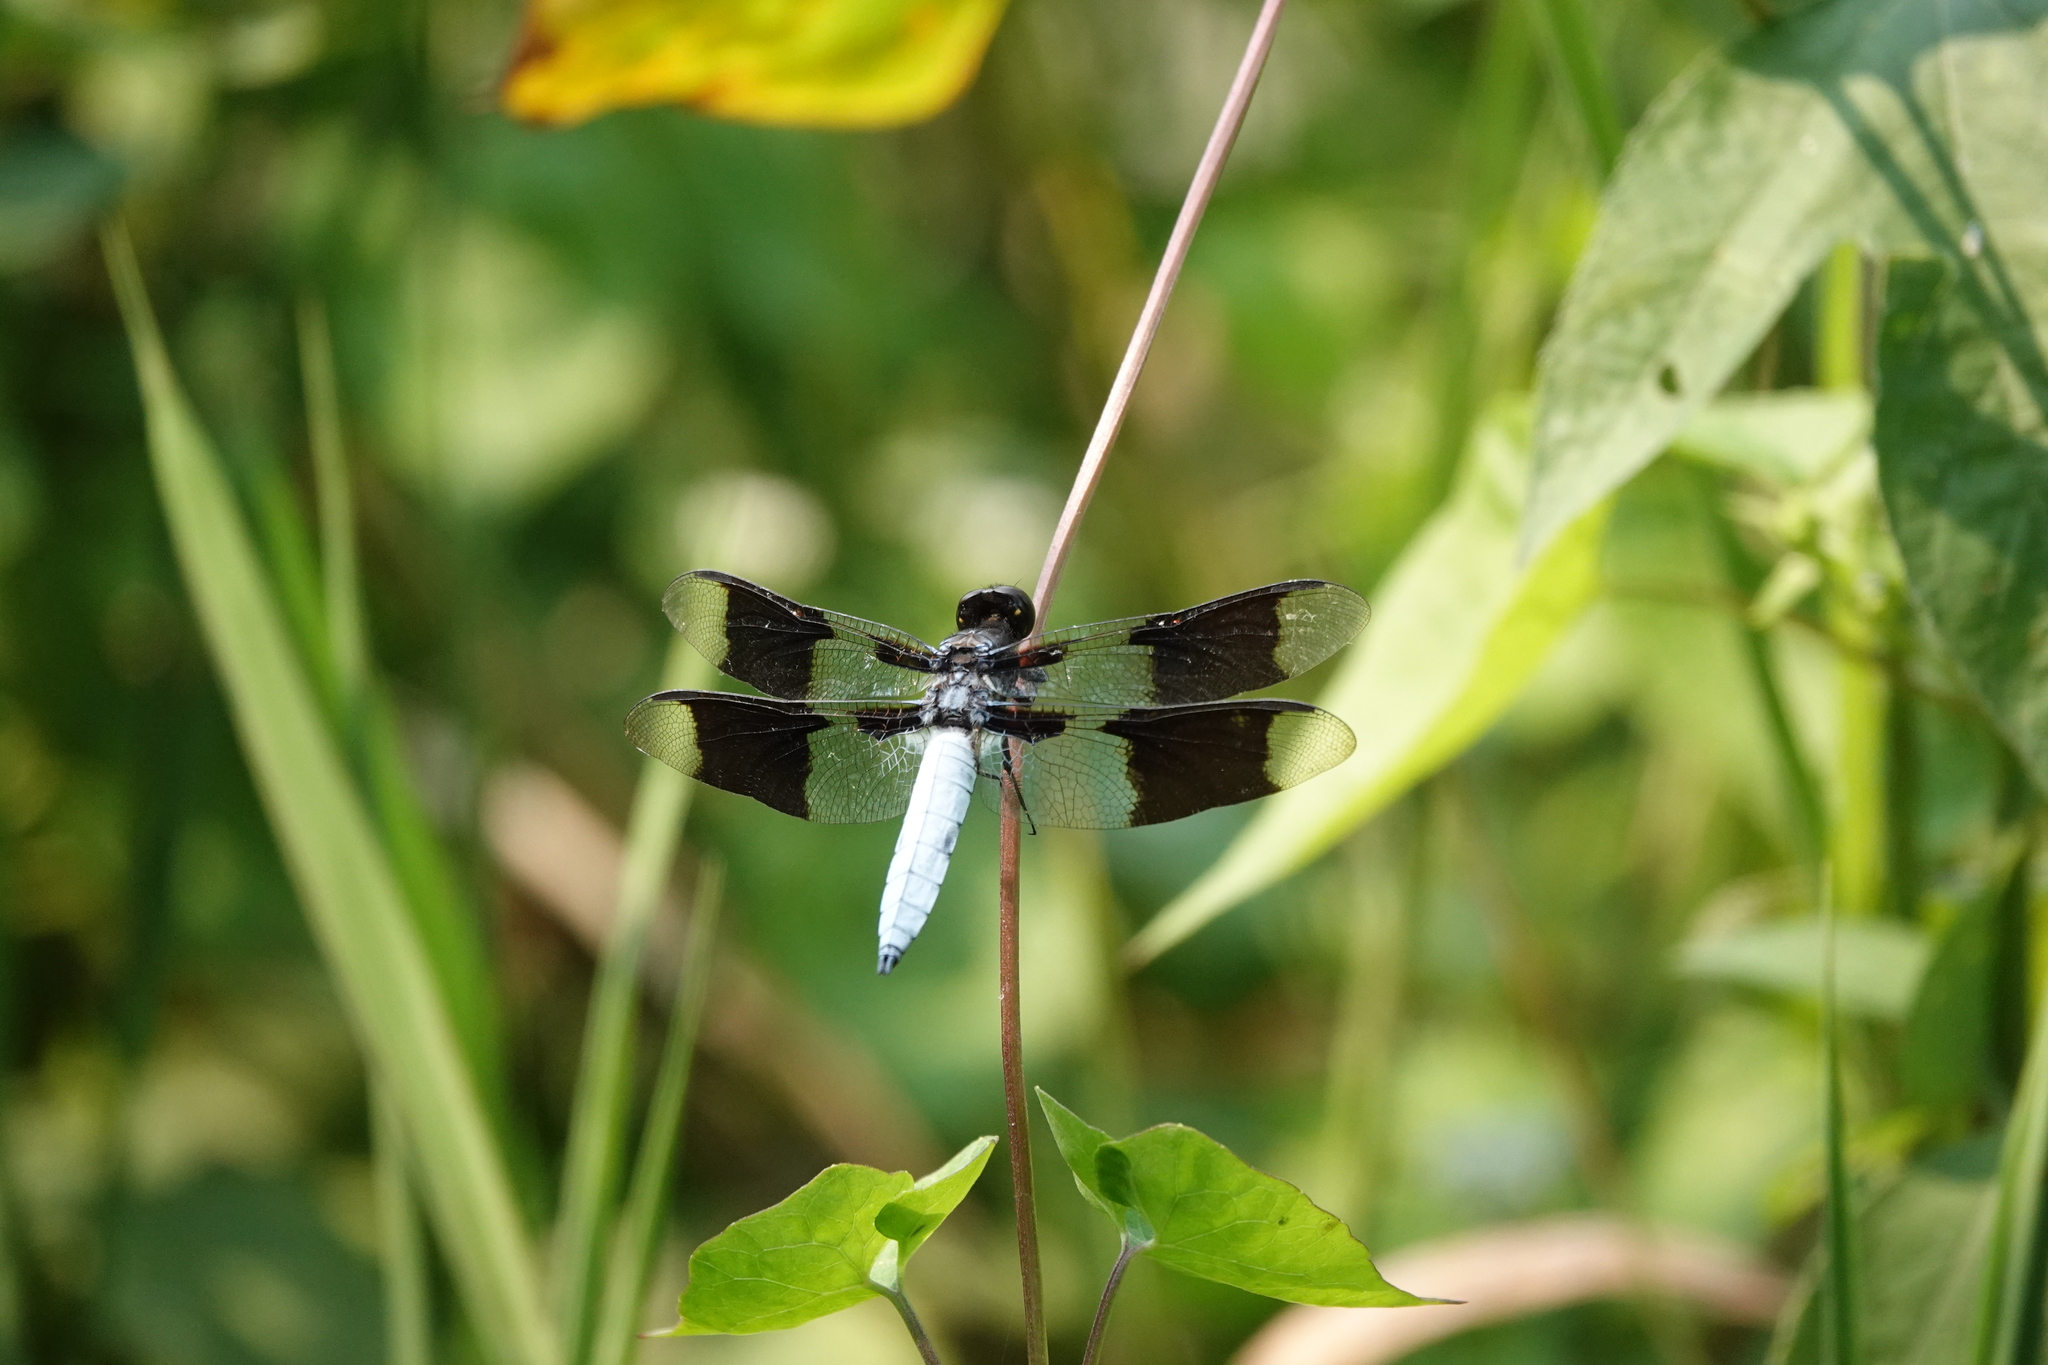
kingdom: Animalia
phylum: Arthropoda
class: Insecta
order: Odonata
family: Libellulidae
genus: Plathemis
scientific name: Plathemis lydia
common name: Common whitetail
